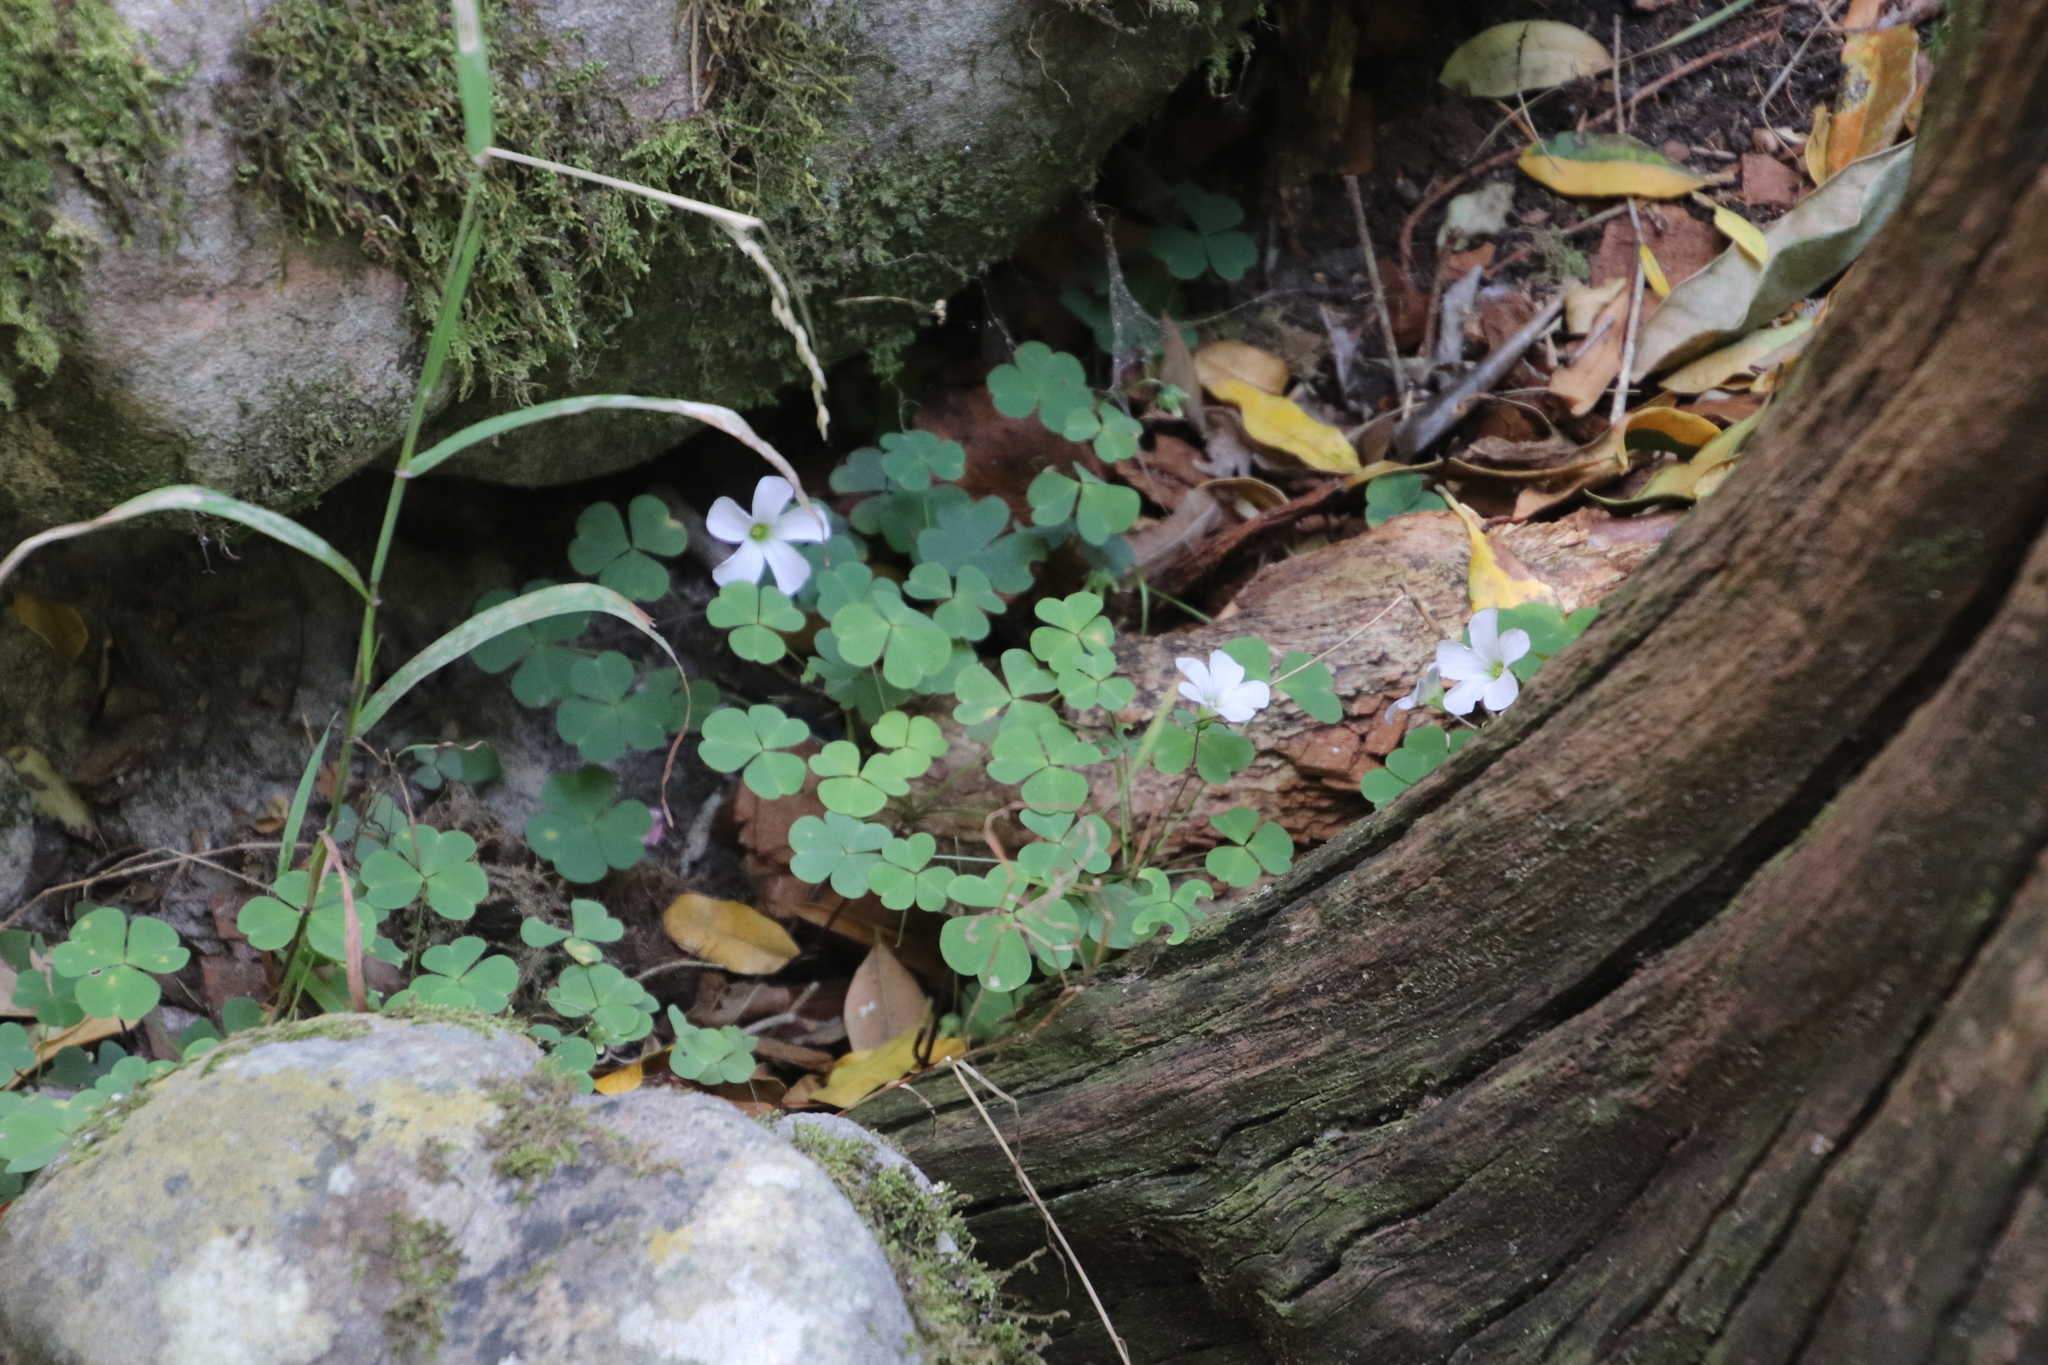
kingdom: Plantae
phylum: Tracheophyta
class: Magnoliopsida
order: Oxalidales
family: Oxalidaceae
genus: Oxalis
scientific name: Oxalis incarnata
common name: Pale pink-sorrel
